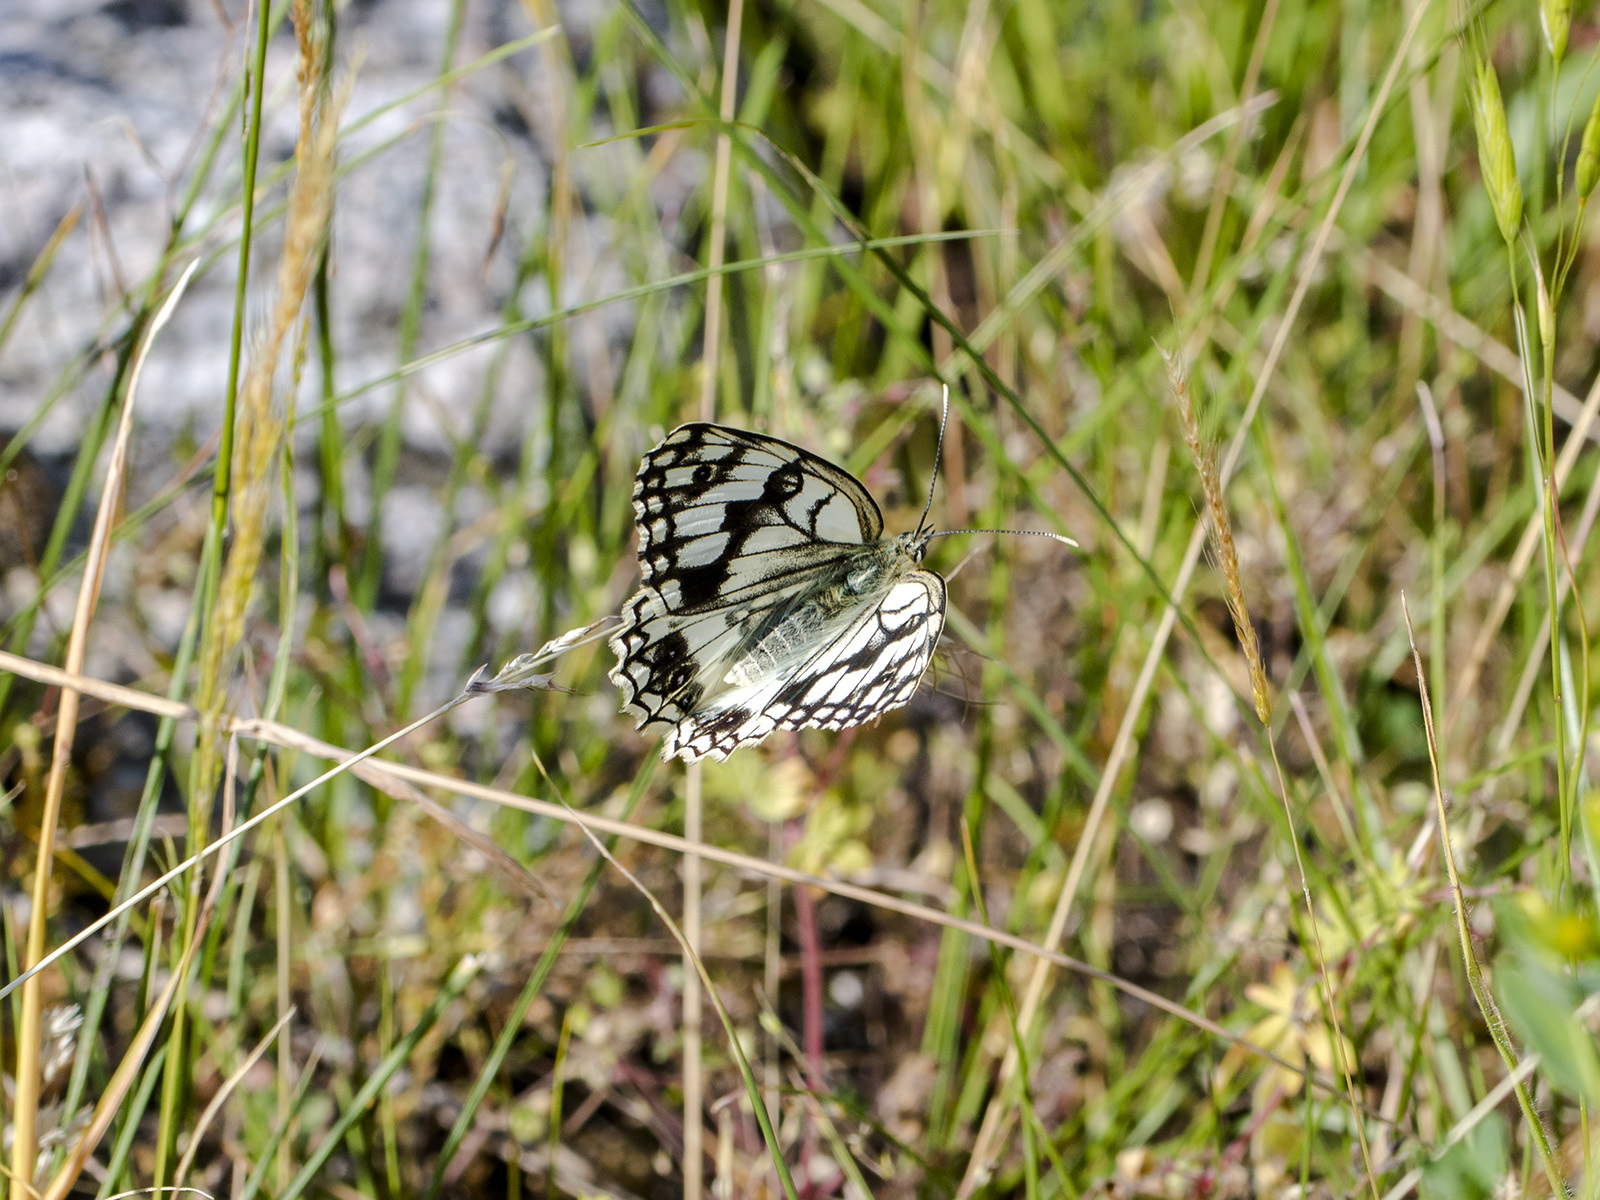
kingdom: Animalia
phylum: Arthropoda
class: Insecta
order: Lepidoptera
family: Nymphalidae
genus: Melanargia
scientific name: Melanargia parce
